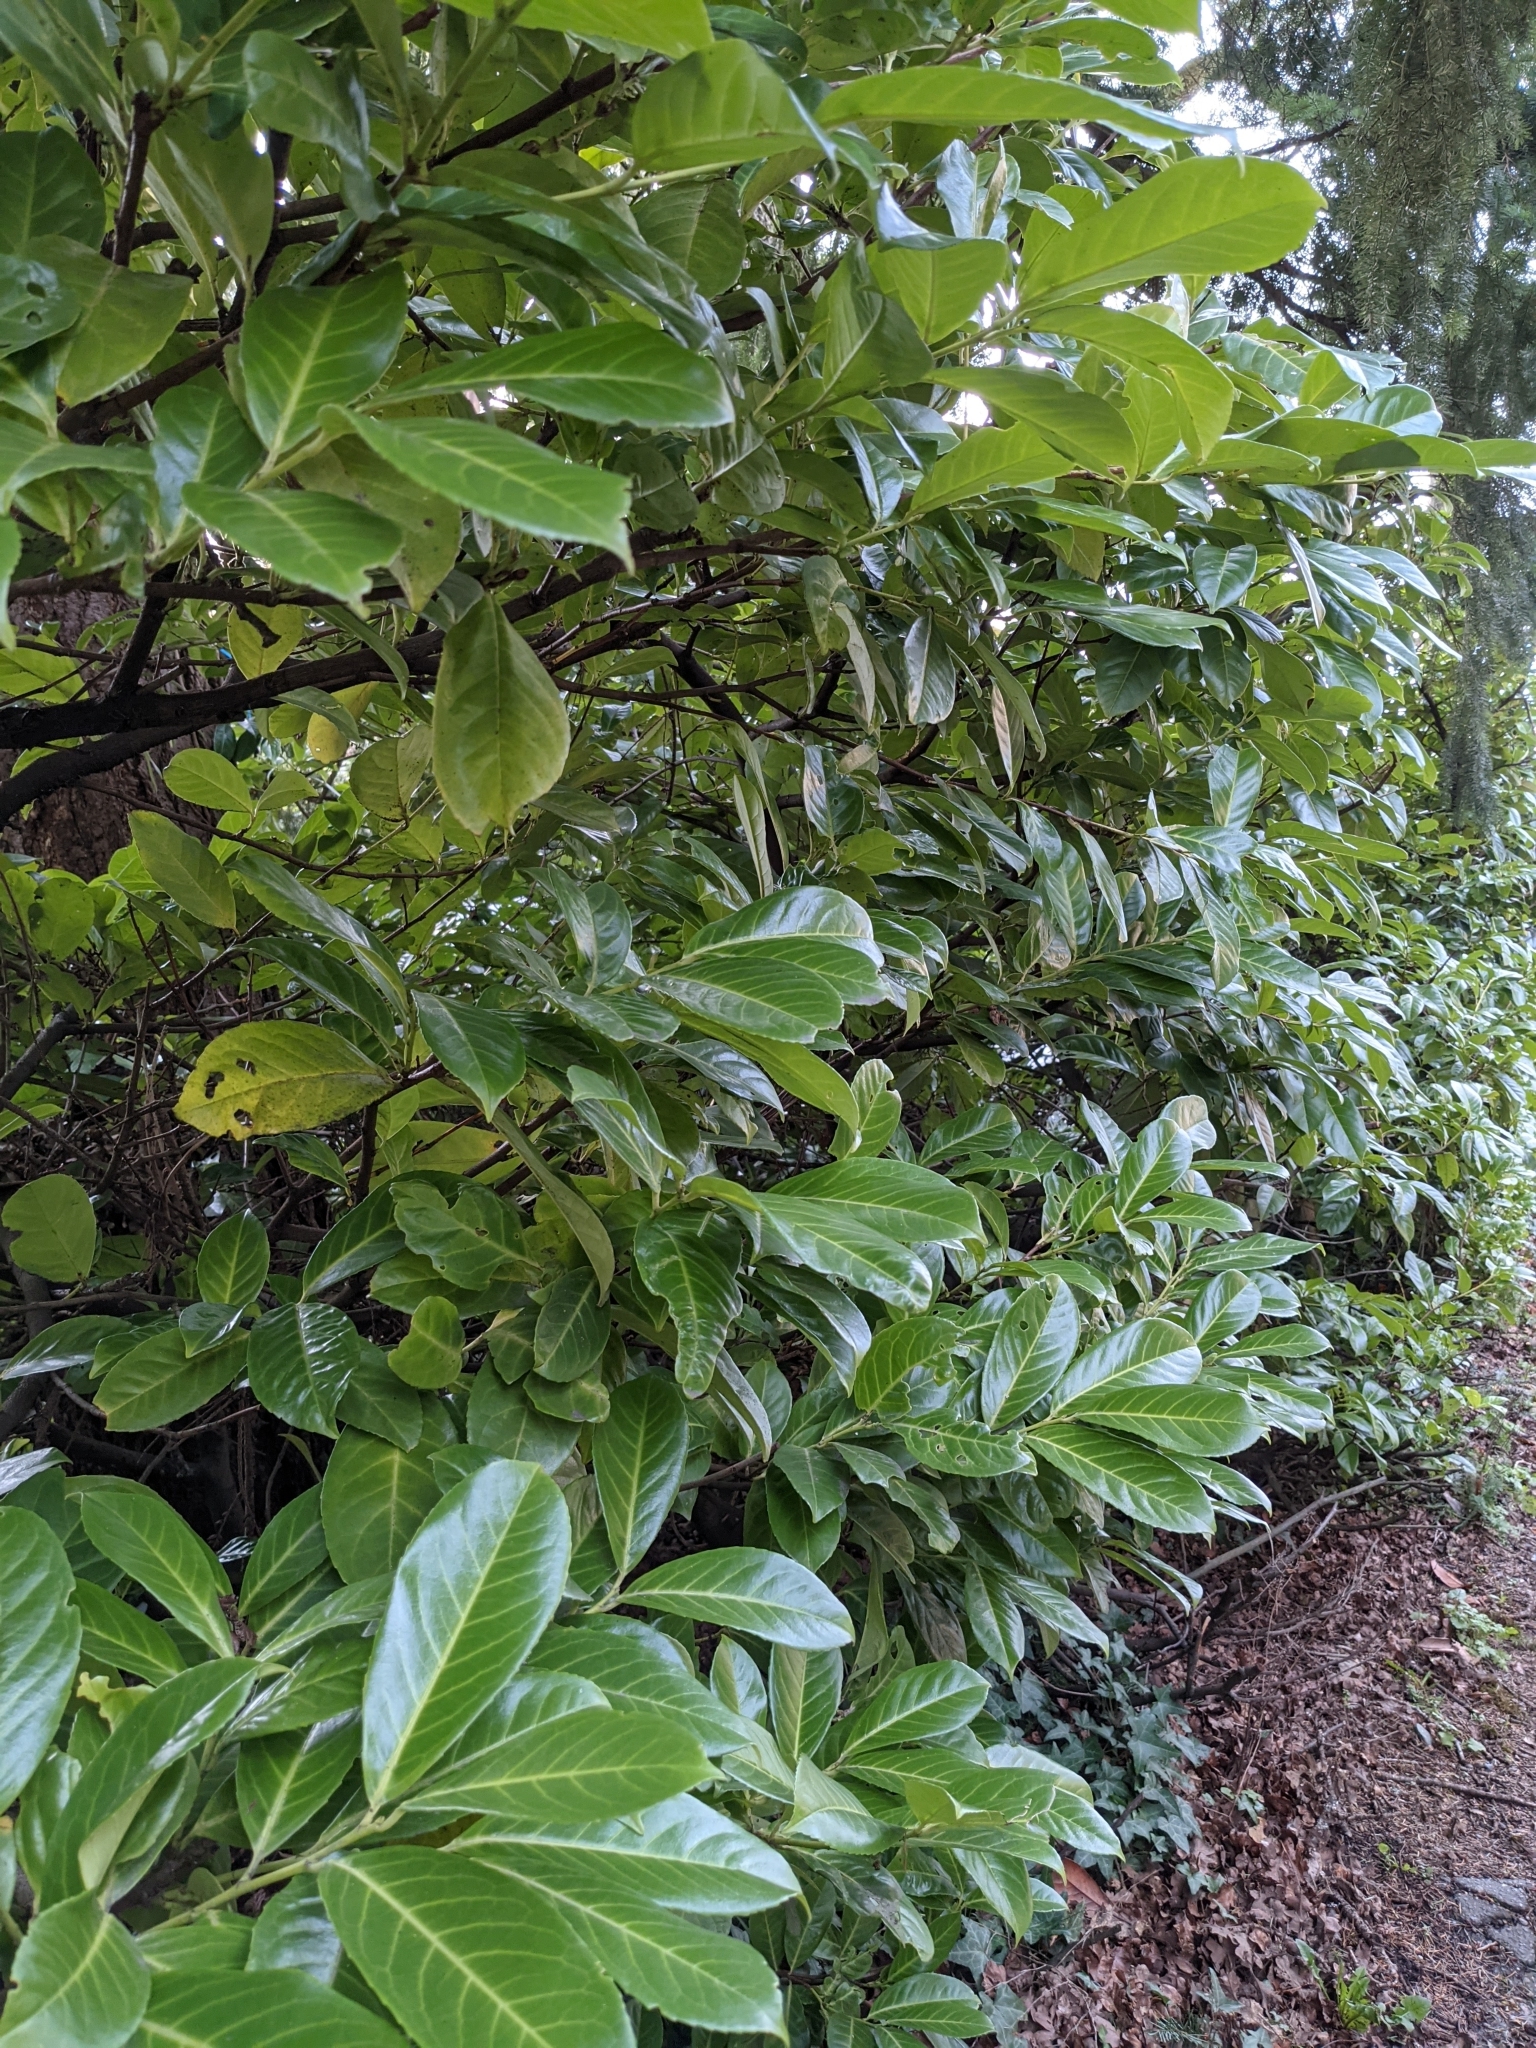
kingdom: Plantae
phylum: Tracheophyta
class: Magnoliopsida
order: Rosales
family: Rosaceae
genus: Prunus
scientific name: Prunus laurocerasus
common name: Cherry laurel
